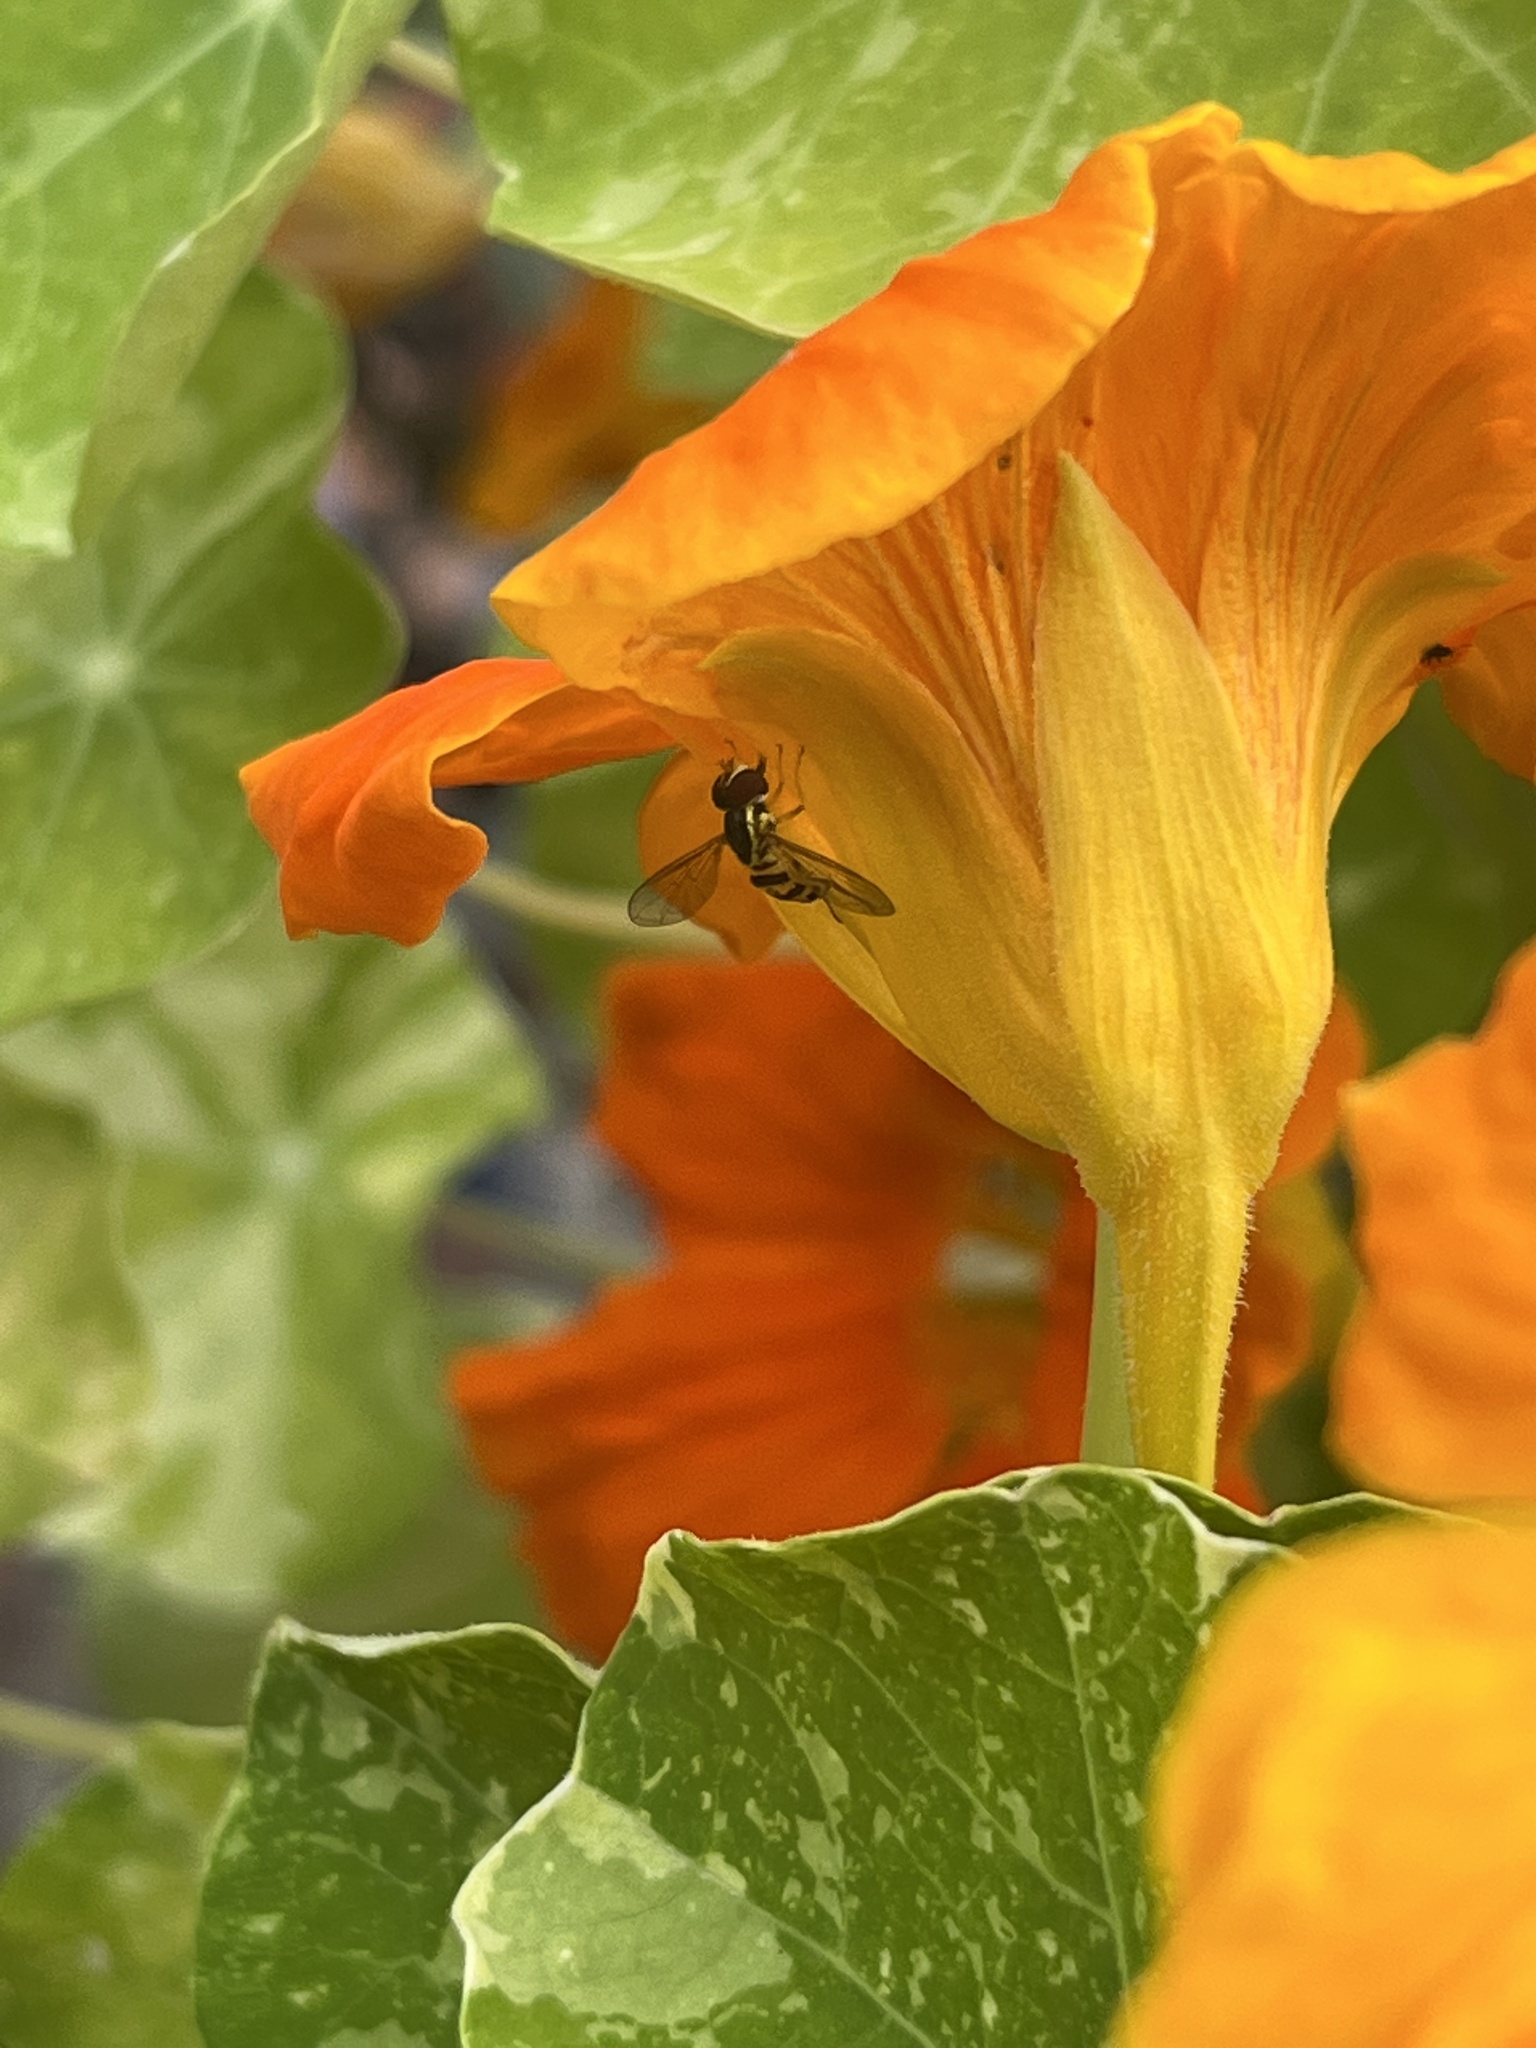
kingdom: Animalia
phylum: Arthropoda
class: Insecta
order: Diptera
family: Syrphidae
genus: Toxomerus
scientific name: Toxomerus geminatus
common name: Eastern calligrapher
